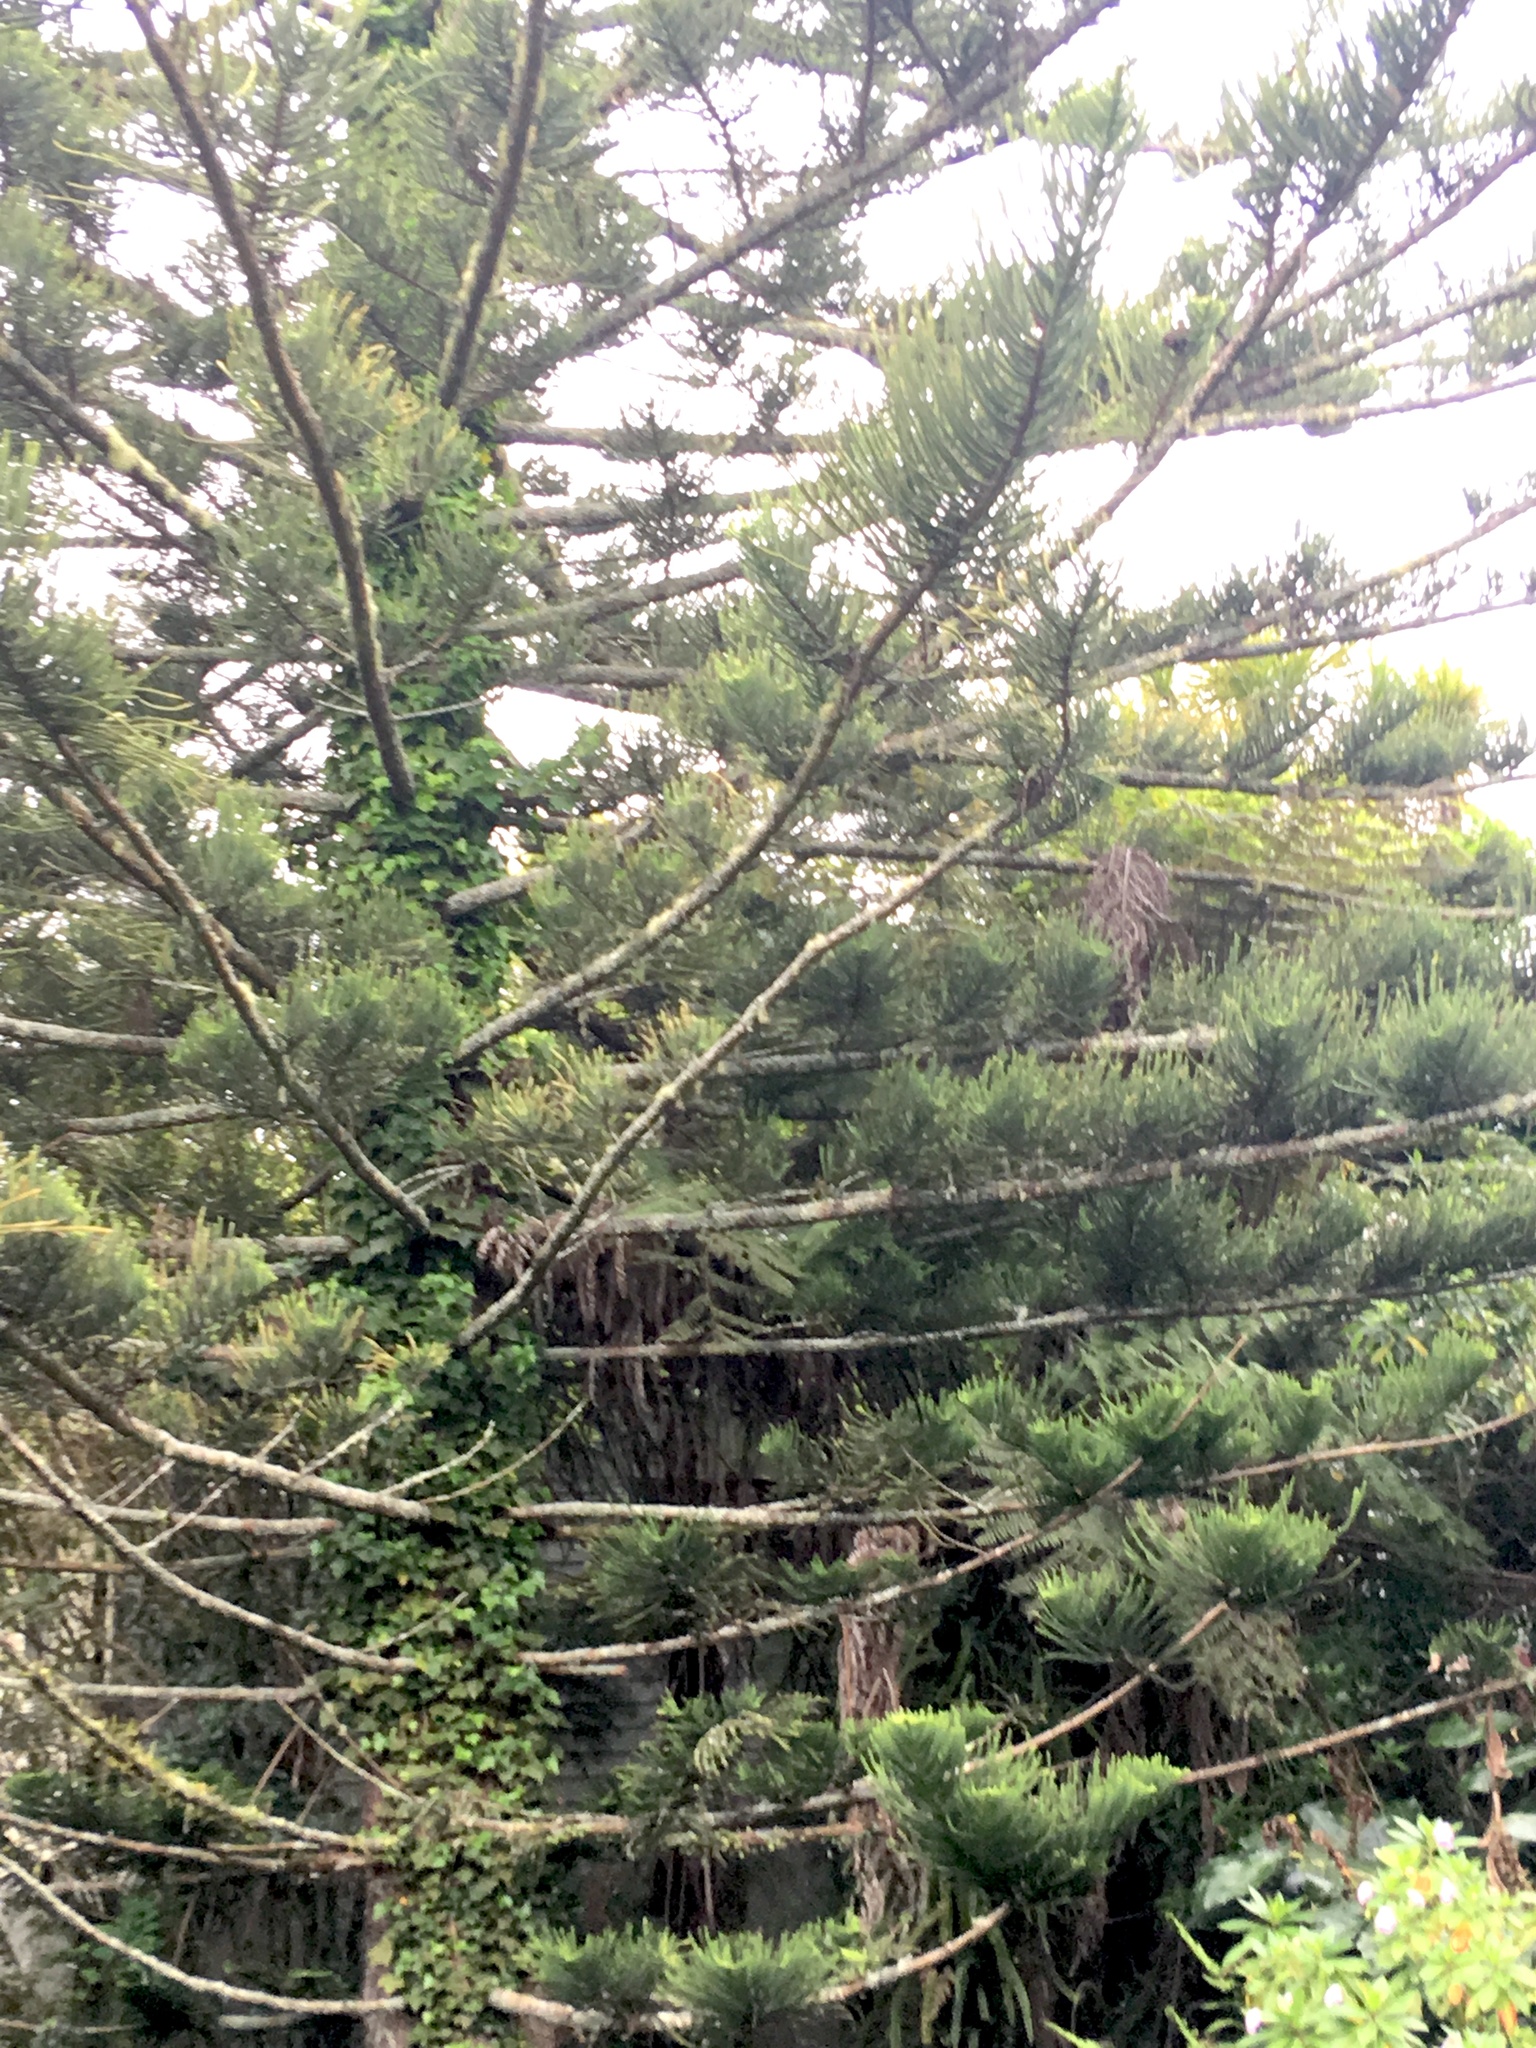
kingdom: Plantae
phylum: Tracheophyta
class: Magnoliopsida
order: Apiales
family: Araliaceae
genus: Hedera
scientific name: Hedera helix
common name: Ivy
